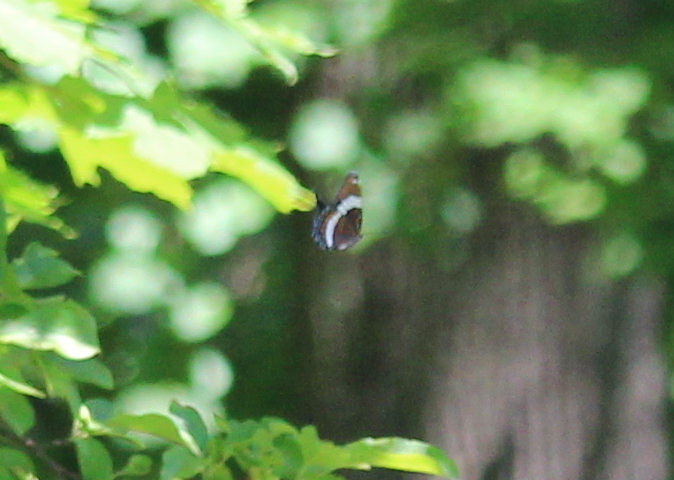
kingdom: Animalia
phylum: Arthropoda
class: Insecta
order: Lepidoptera
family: Nymphalidae
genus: Limenitis
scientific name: Limenitis arthemis
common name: Red-spotted admiral
